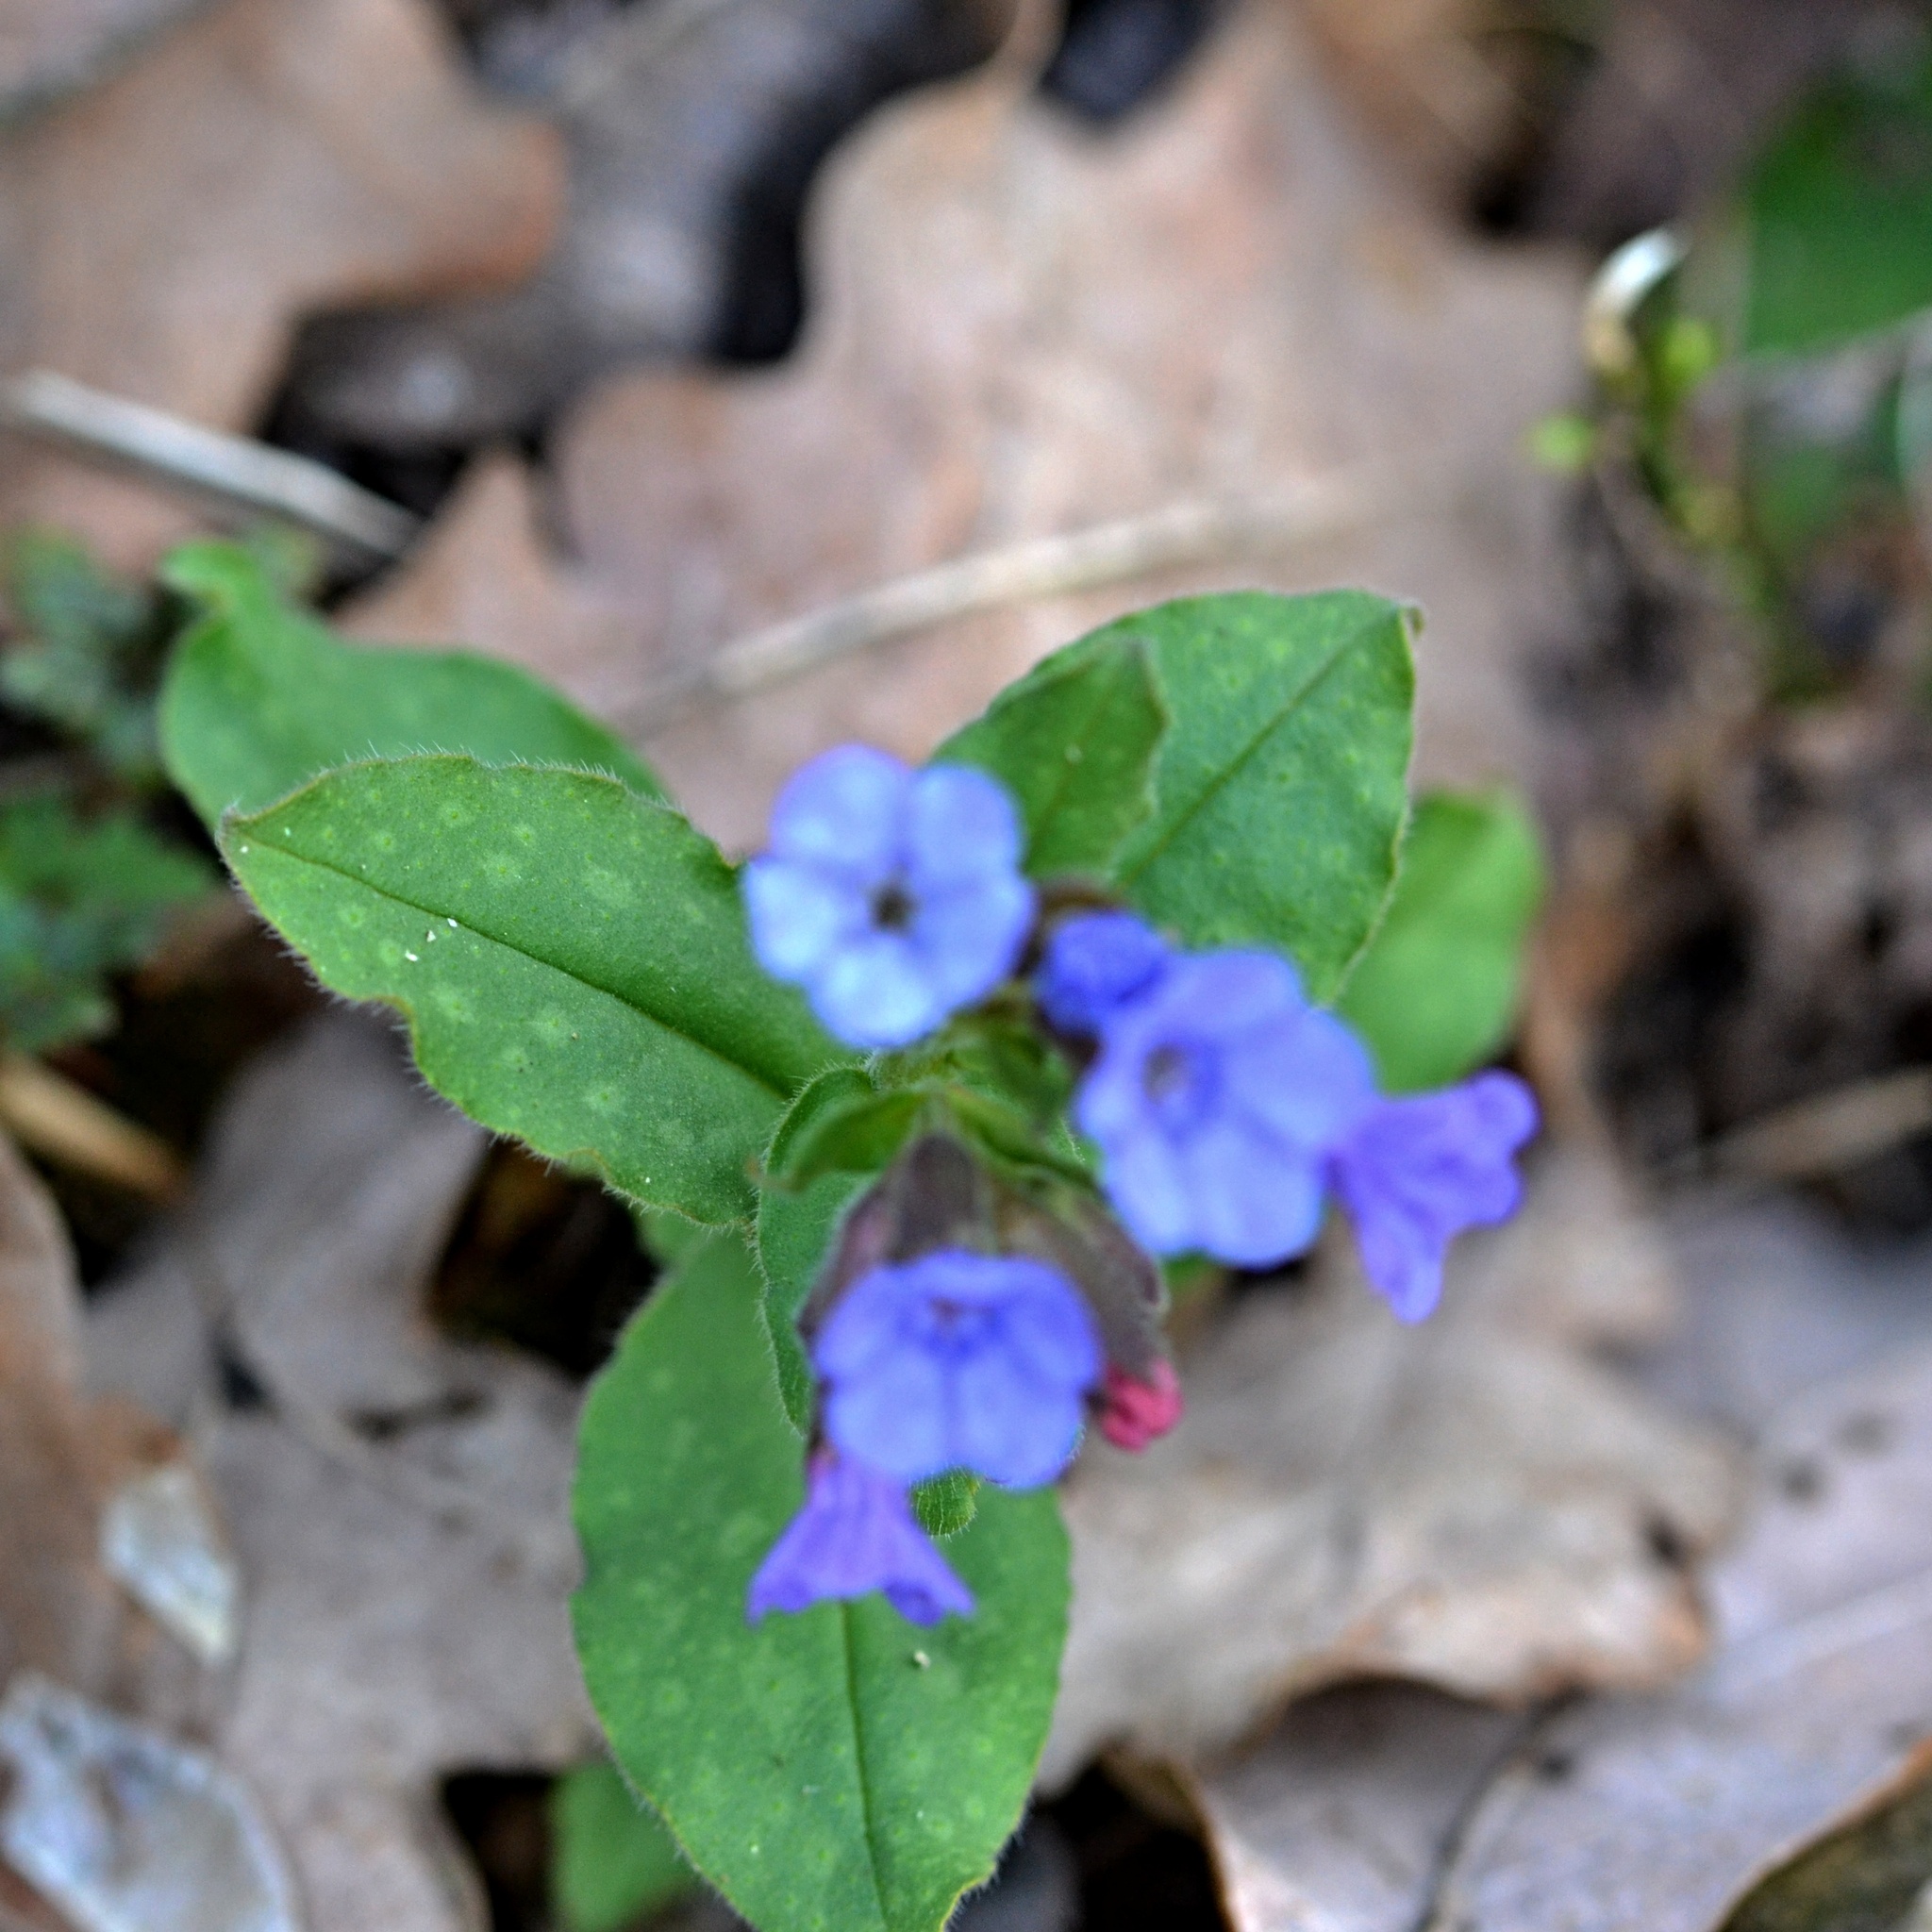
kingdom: Plantae
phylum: Tracheophyta
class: Magnoliopsida
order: Boraginales
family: Boraginaceae
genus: Pulmonaria
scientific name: Pulmonaria officinalis
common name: Lungwort
